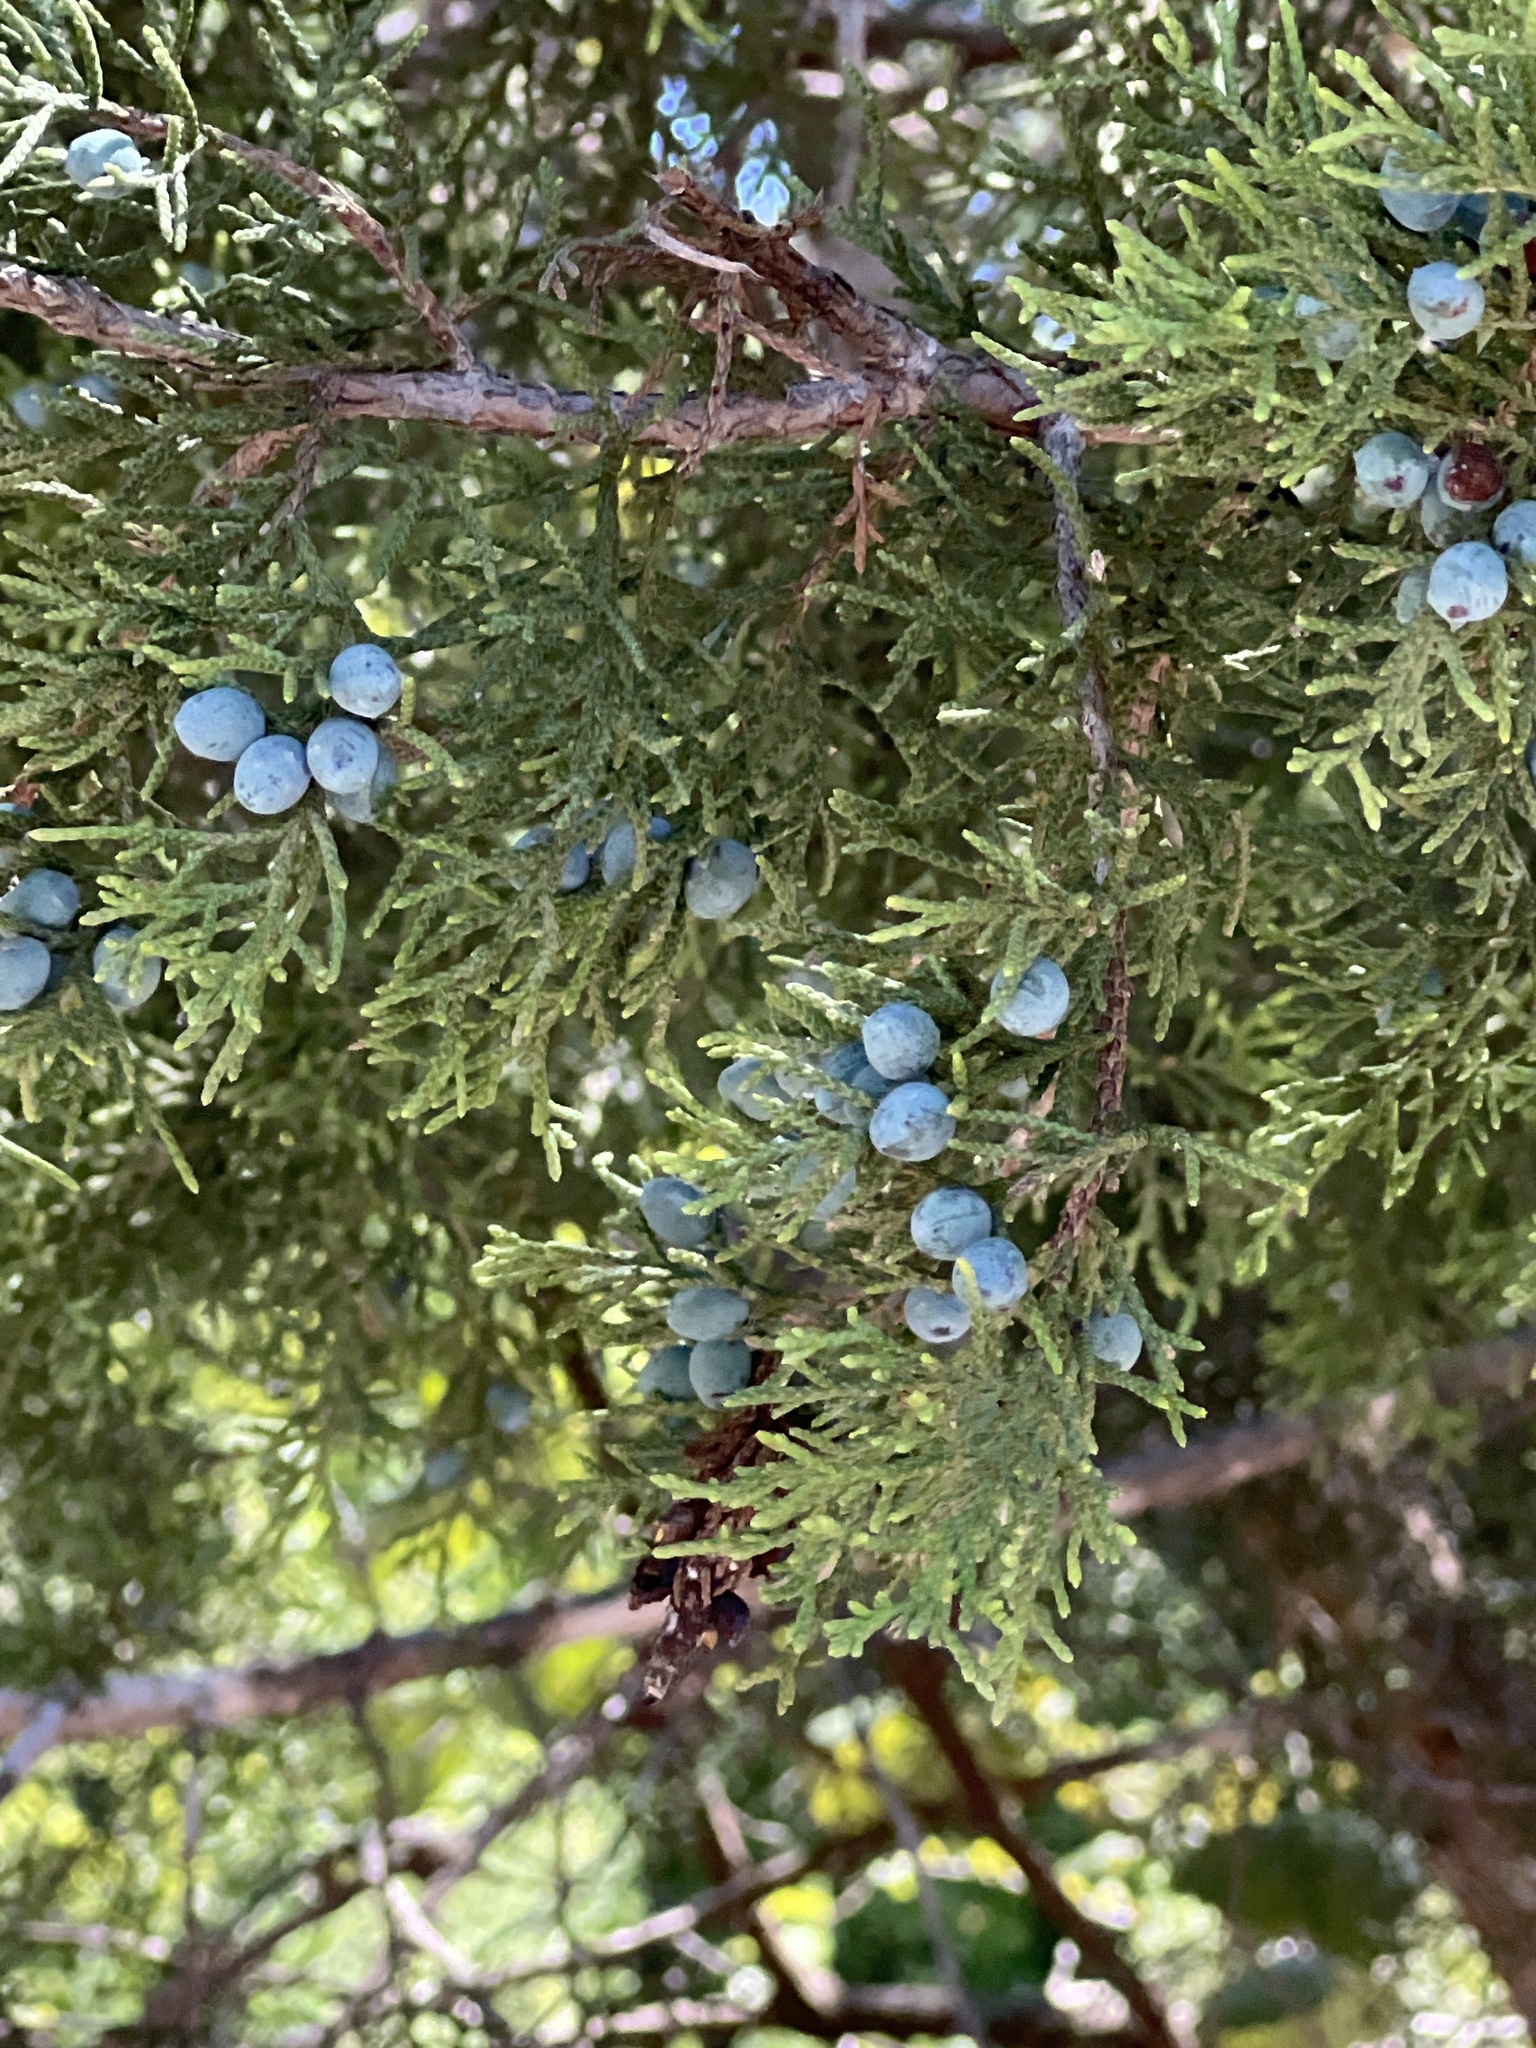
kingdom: Plantae
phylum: Tracheophyta
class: Pinopsida
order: Pinales
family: Cupressaceae
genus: Juniperus
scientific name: Juniperus ashei
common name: Mexican juniper
